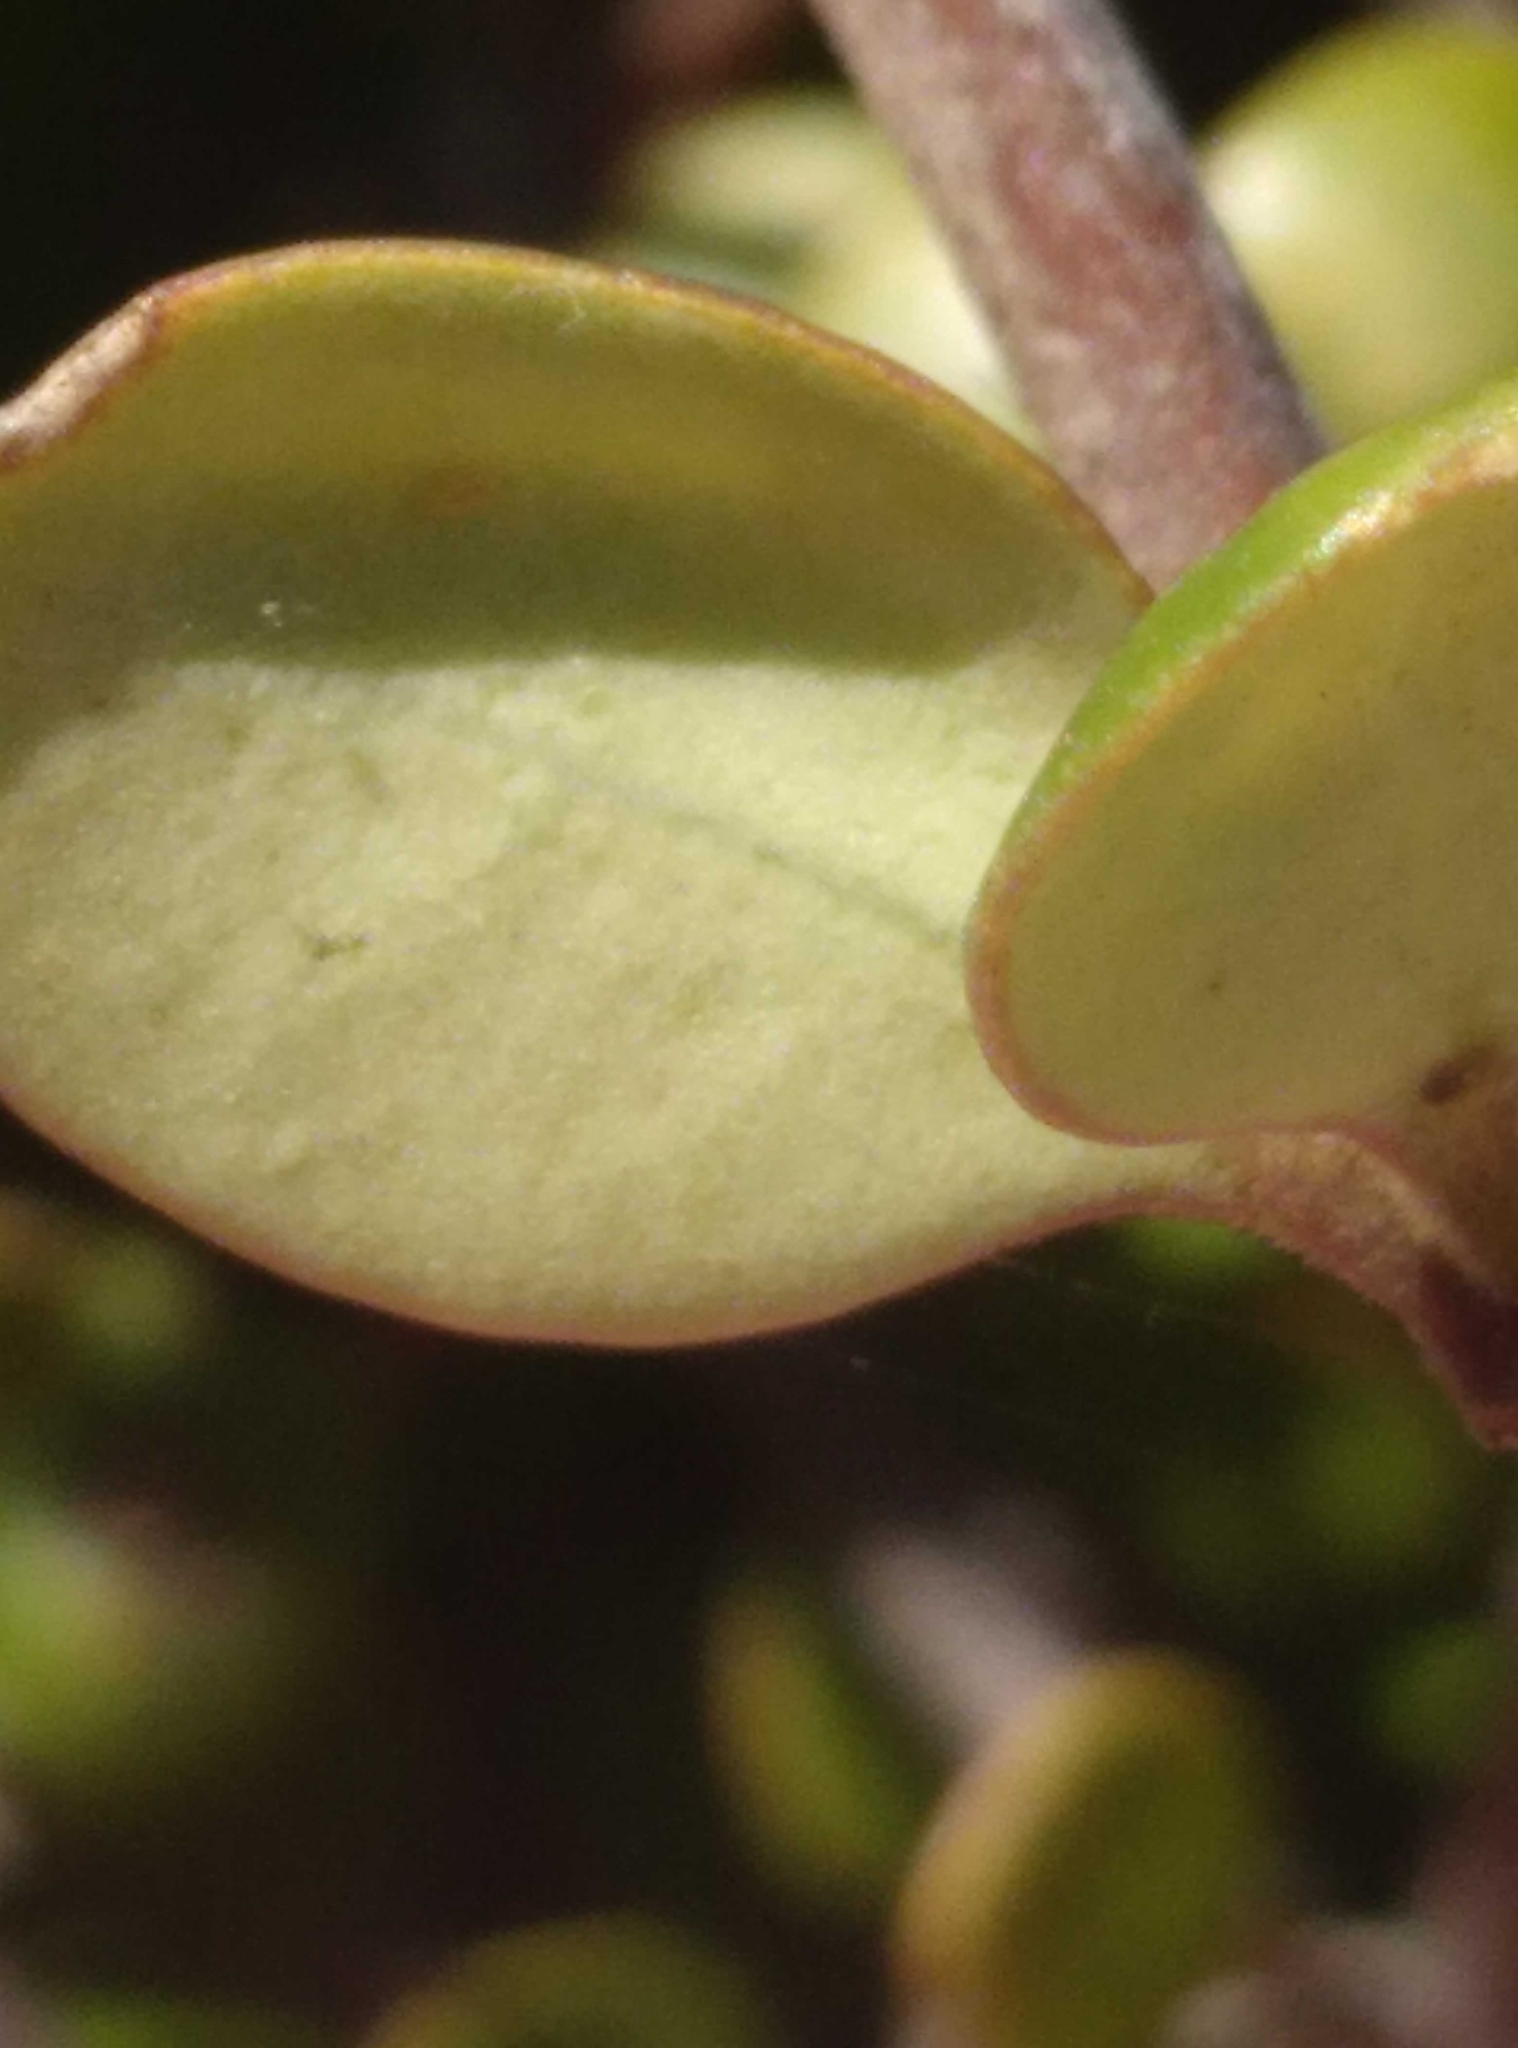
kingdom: Plantae
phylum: Tracheophyta
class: Magnoliopsida
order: Gentianales
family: Rubiaceae
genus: Coprosma
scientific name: Coprosma crassifolia
